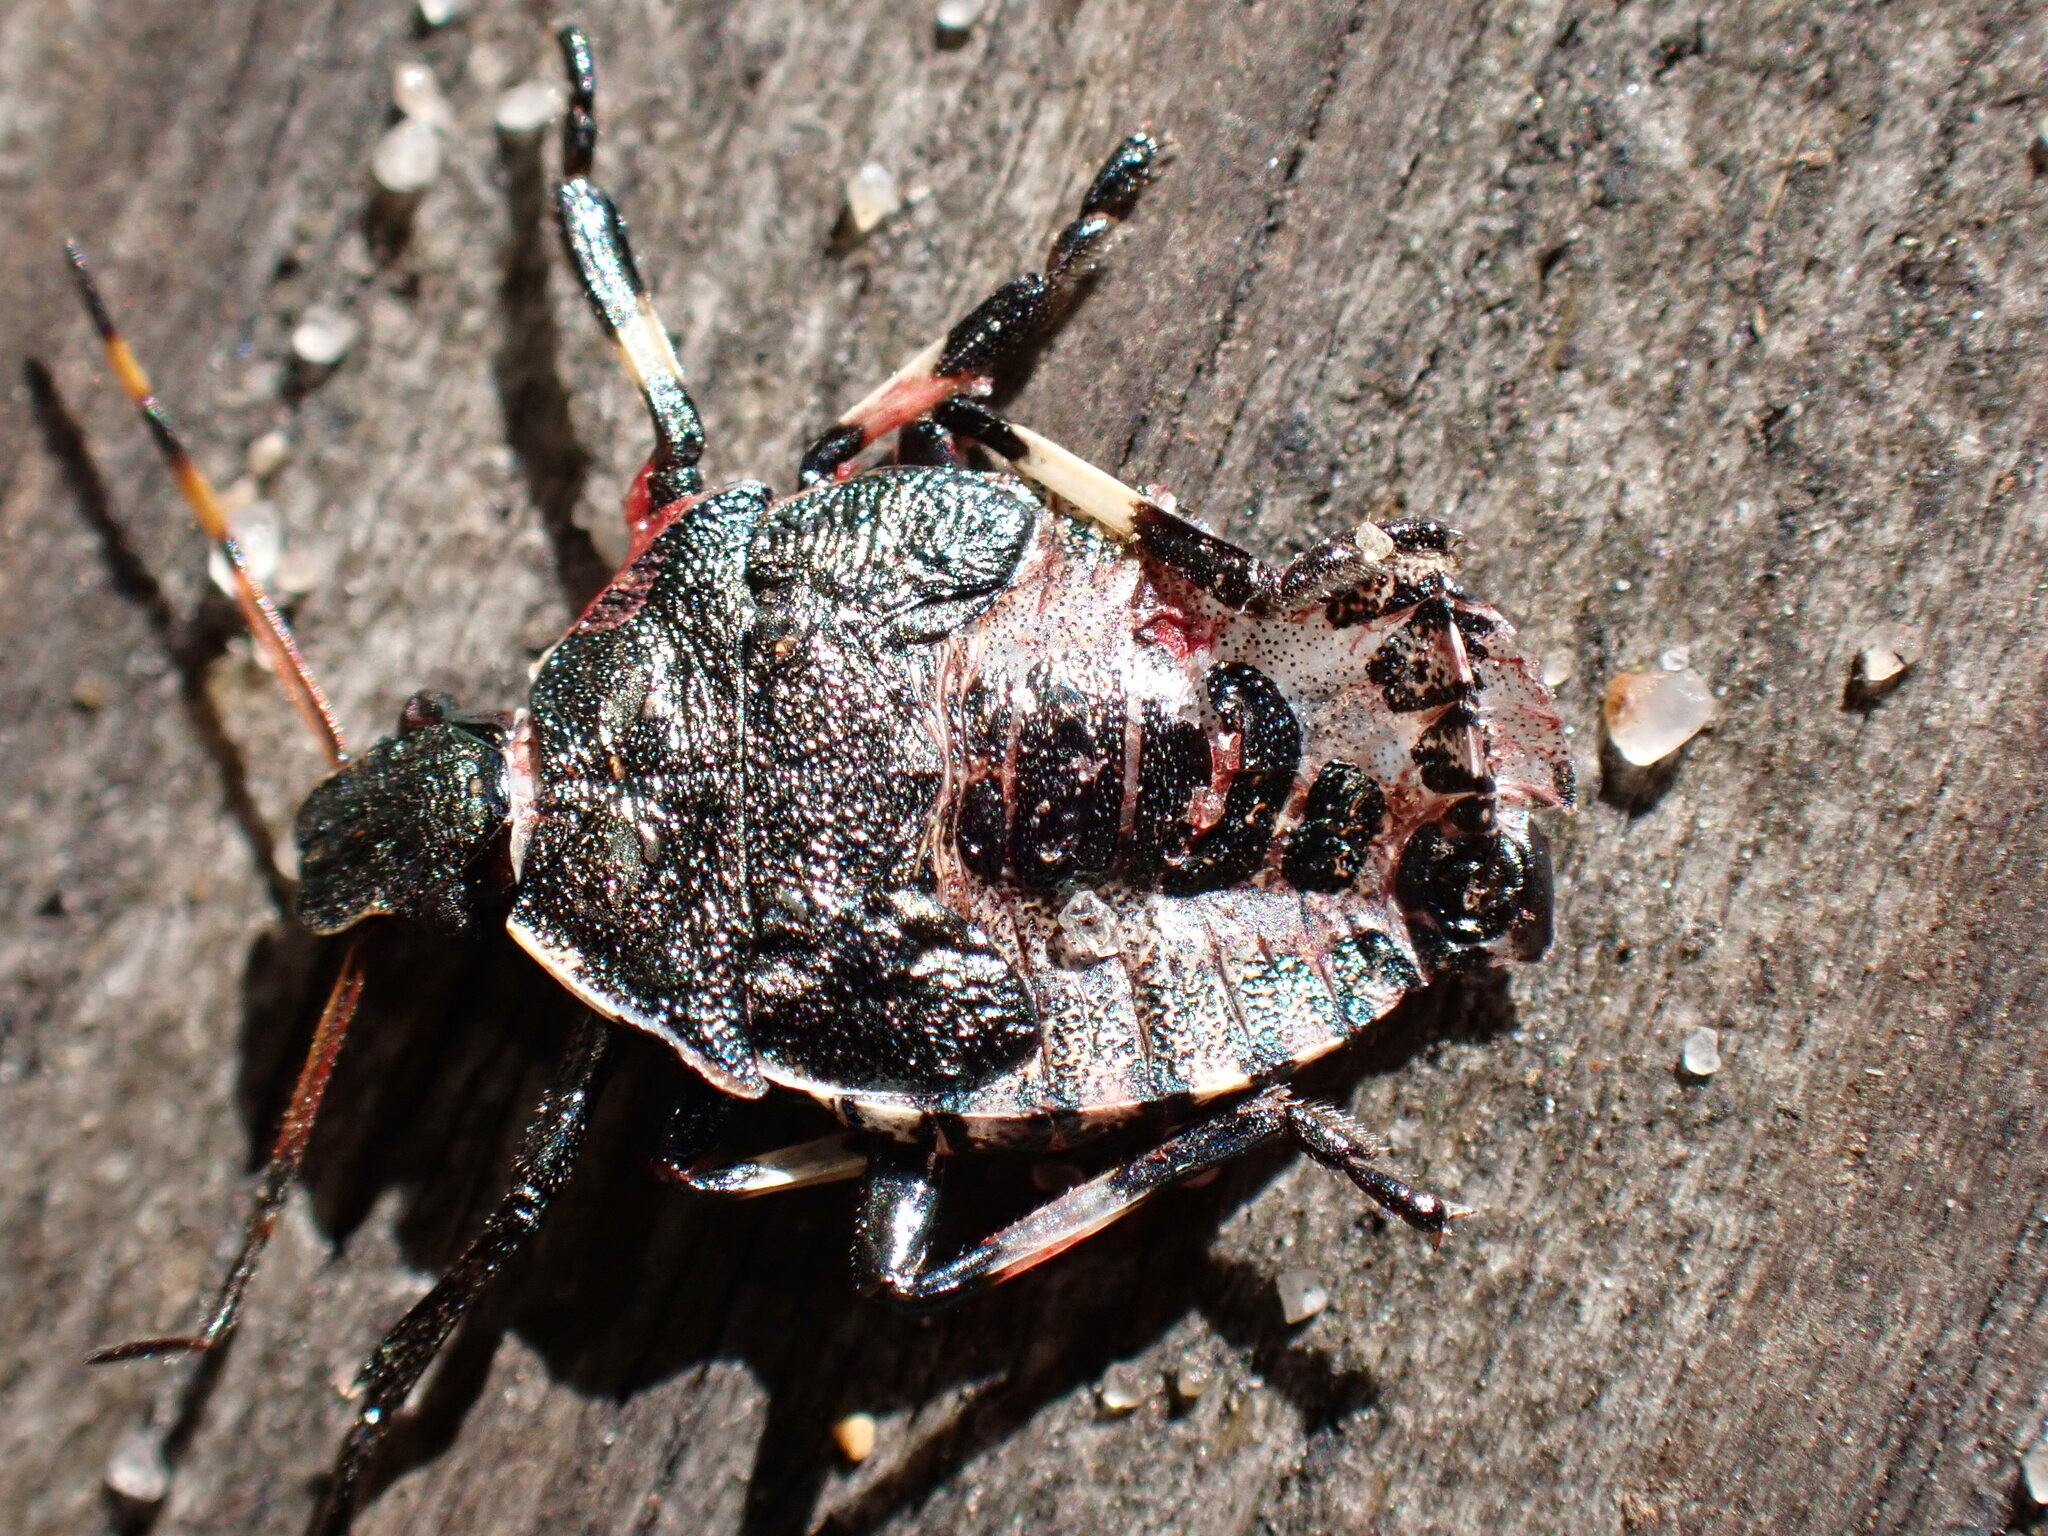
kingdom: Animalia
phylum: Arthropoda
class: Insecta
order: Hemiptera
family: Pentatomidae
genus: Picromerus
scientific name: Picromerus bidens
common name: Spiked shieldbug
